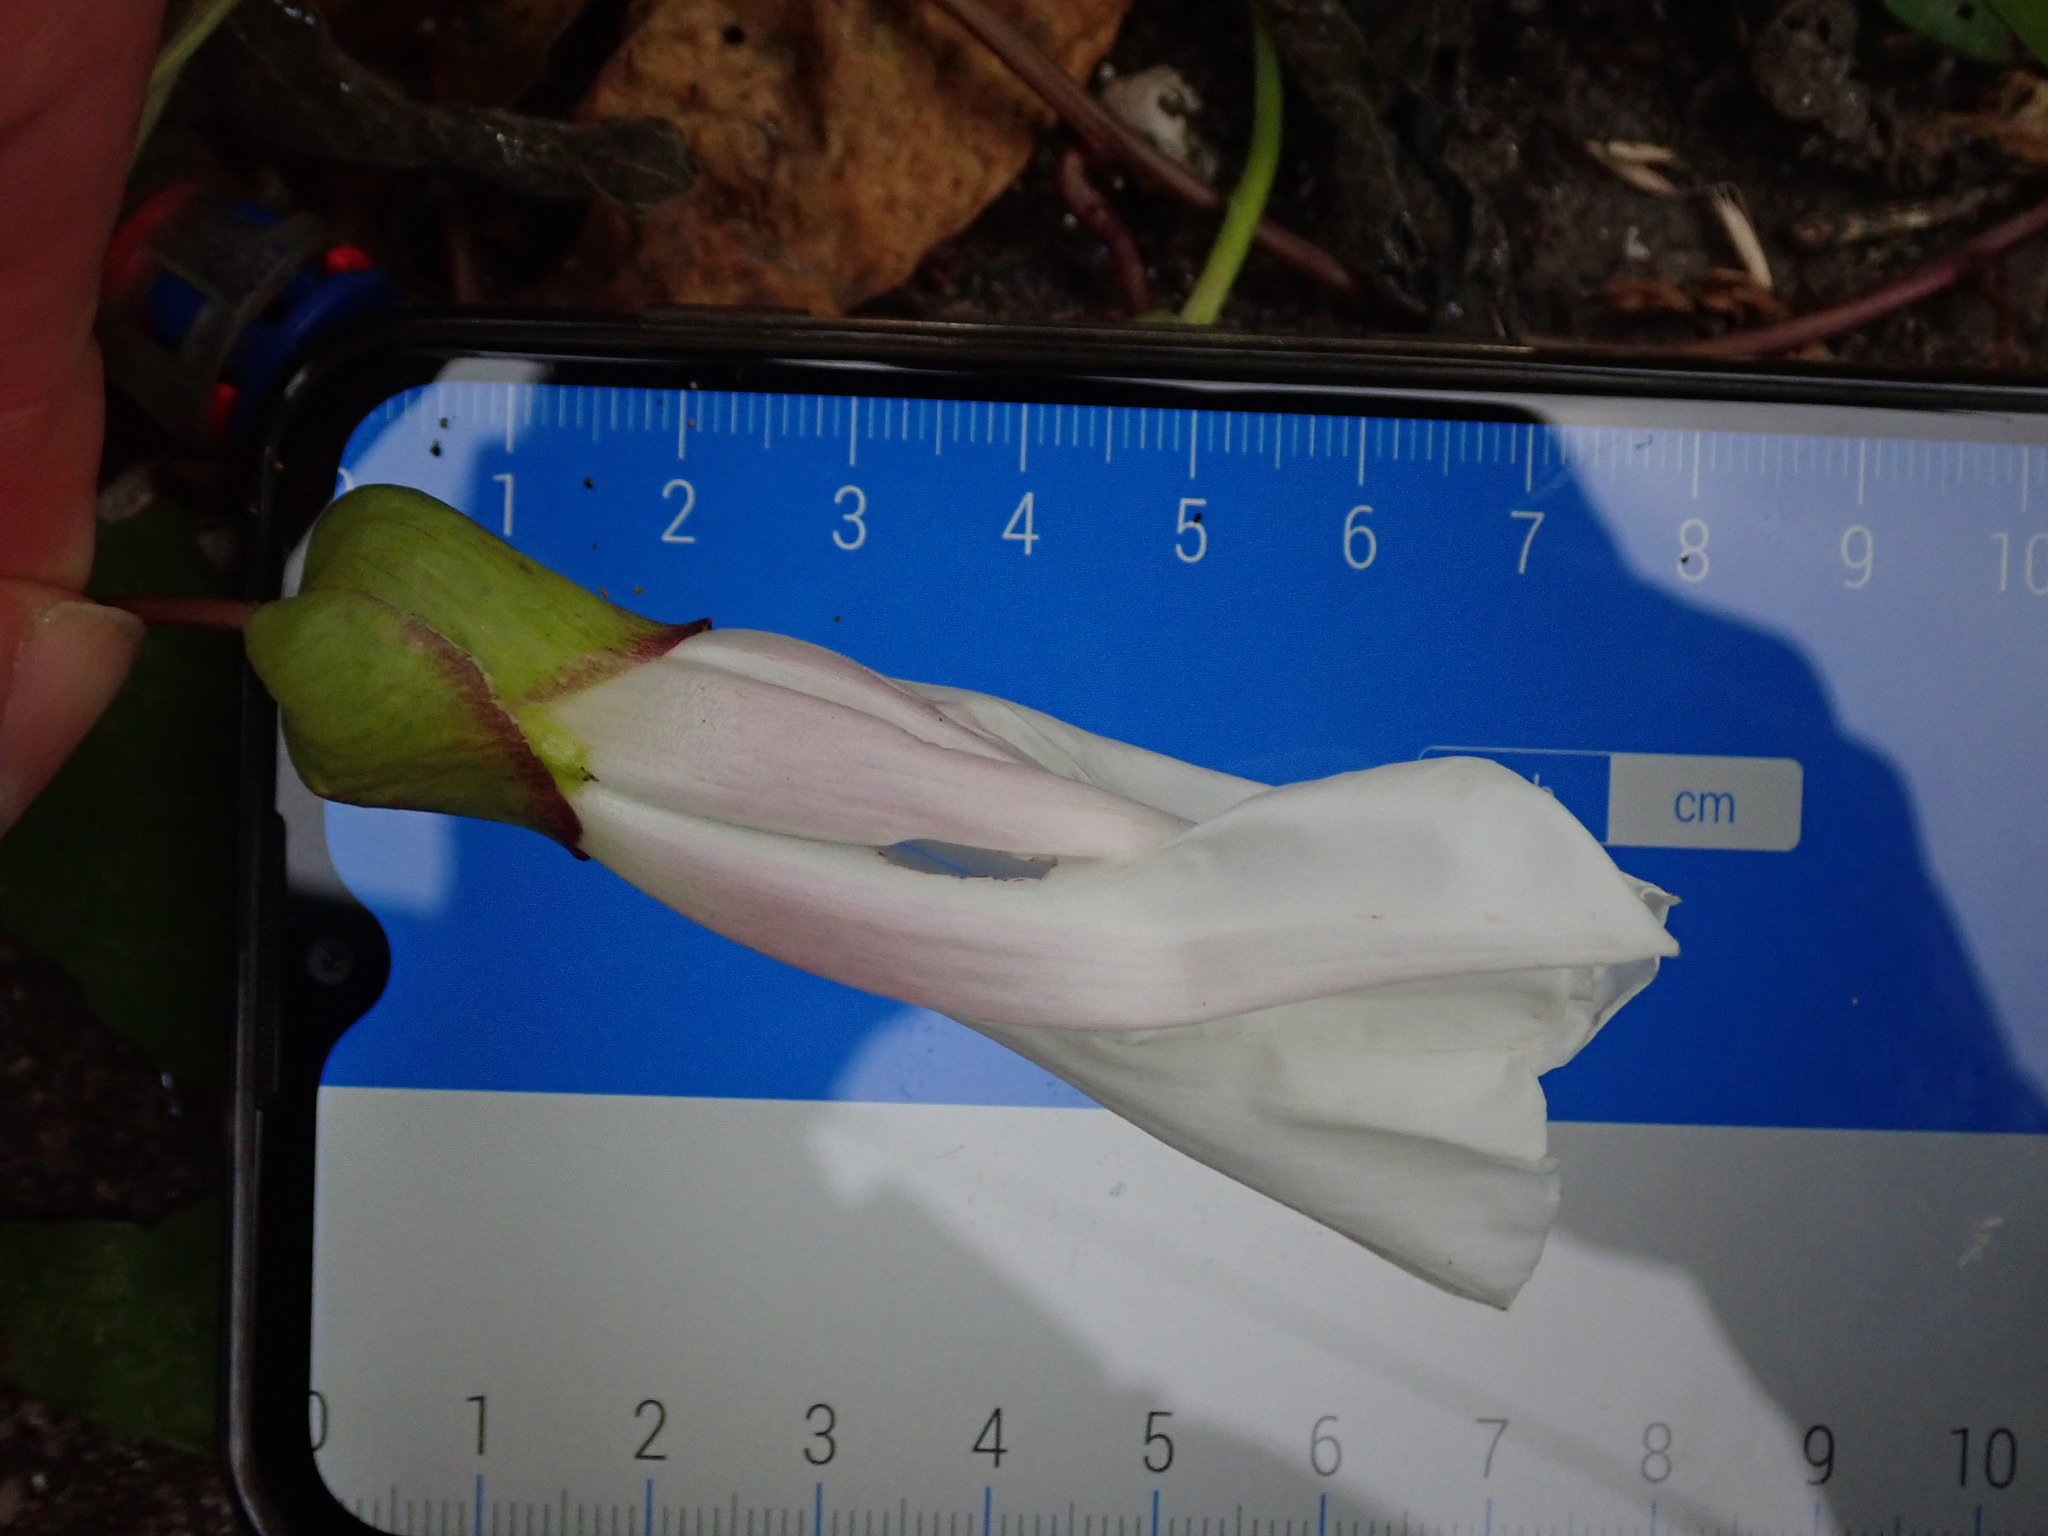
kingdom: Plantae
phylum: Tracheophyta
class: Magnoliopsida
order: Solanales
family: Convolvulaceae
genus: Calystegia
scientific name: Calystegia silvatica
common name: Large bindweed
